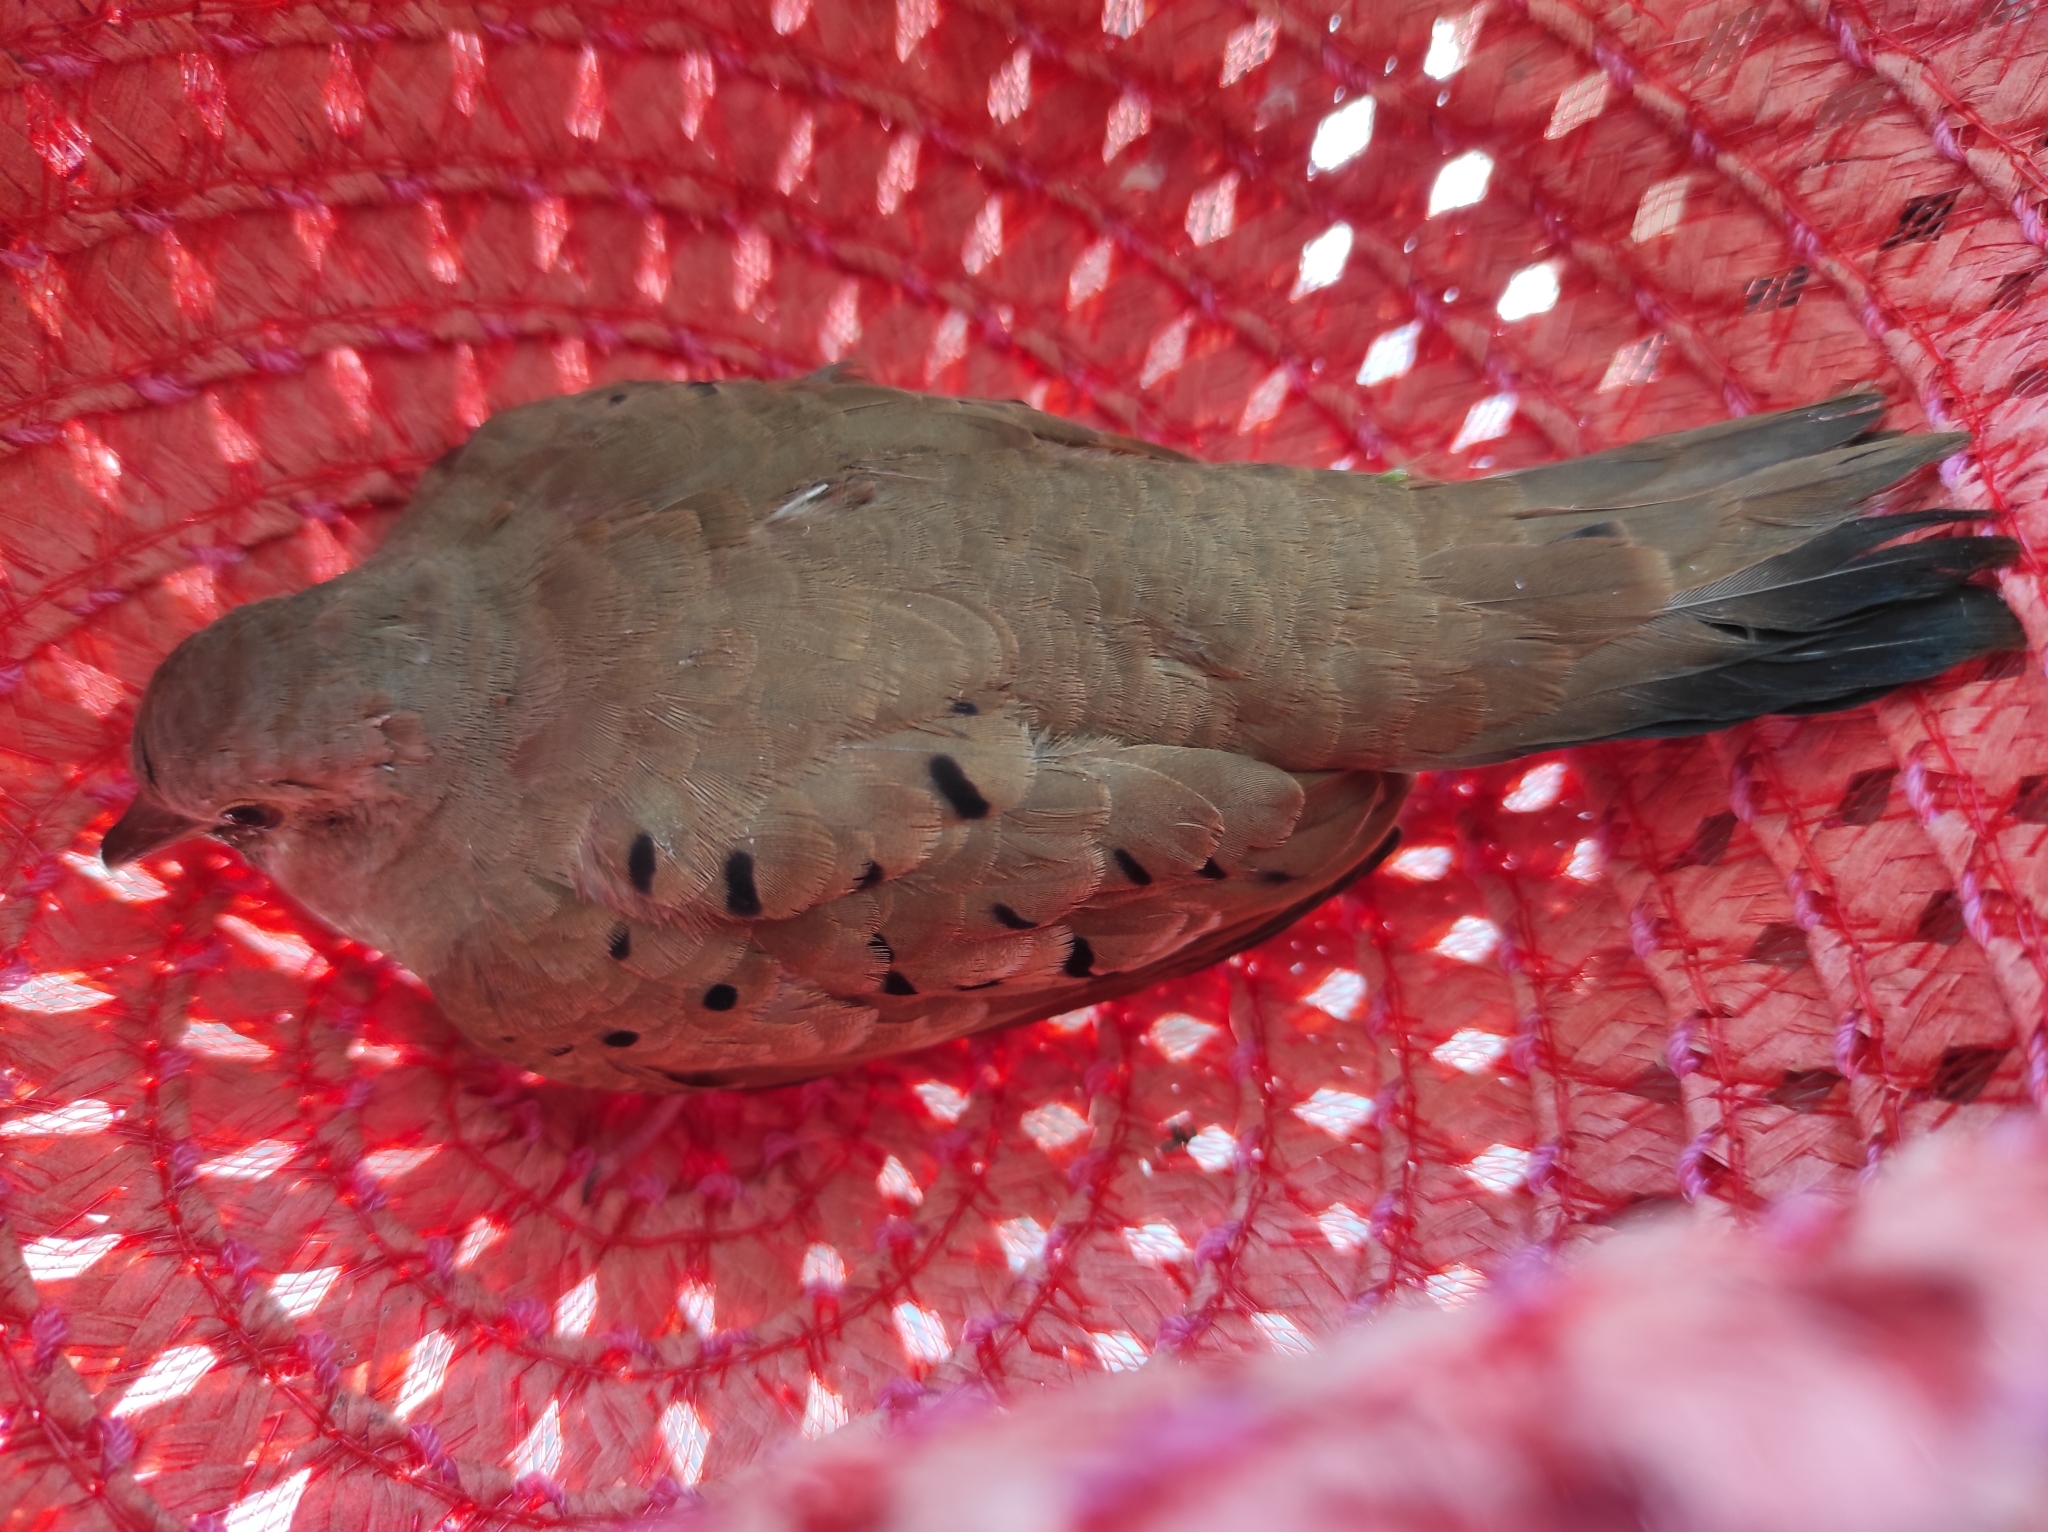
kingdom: Animalia
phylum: Chordata
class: Aves
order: Columbiformes
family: Columbidae
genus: Columbina
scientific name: Columbina talpacoti
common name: Ruddy ground dove
